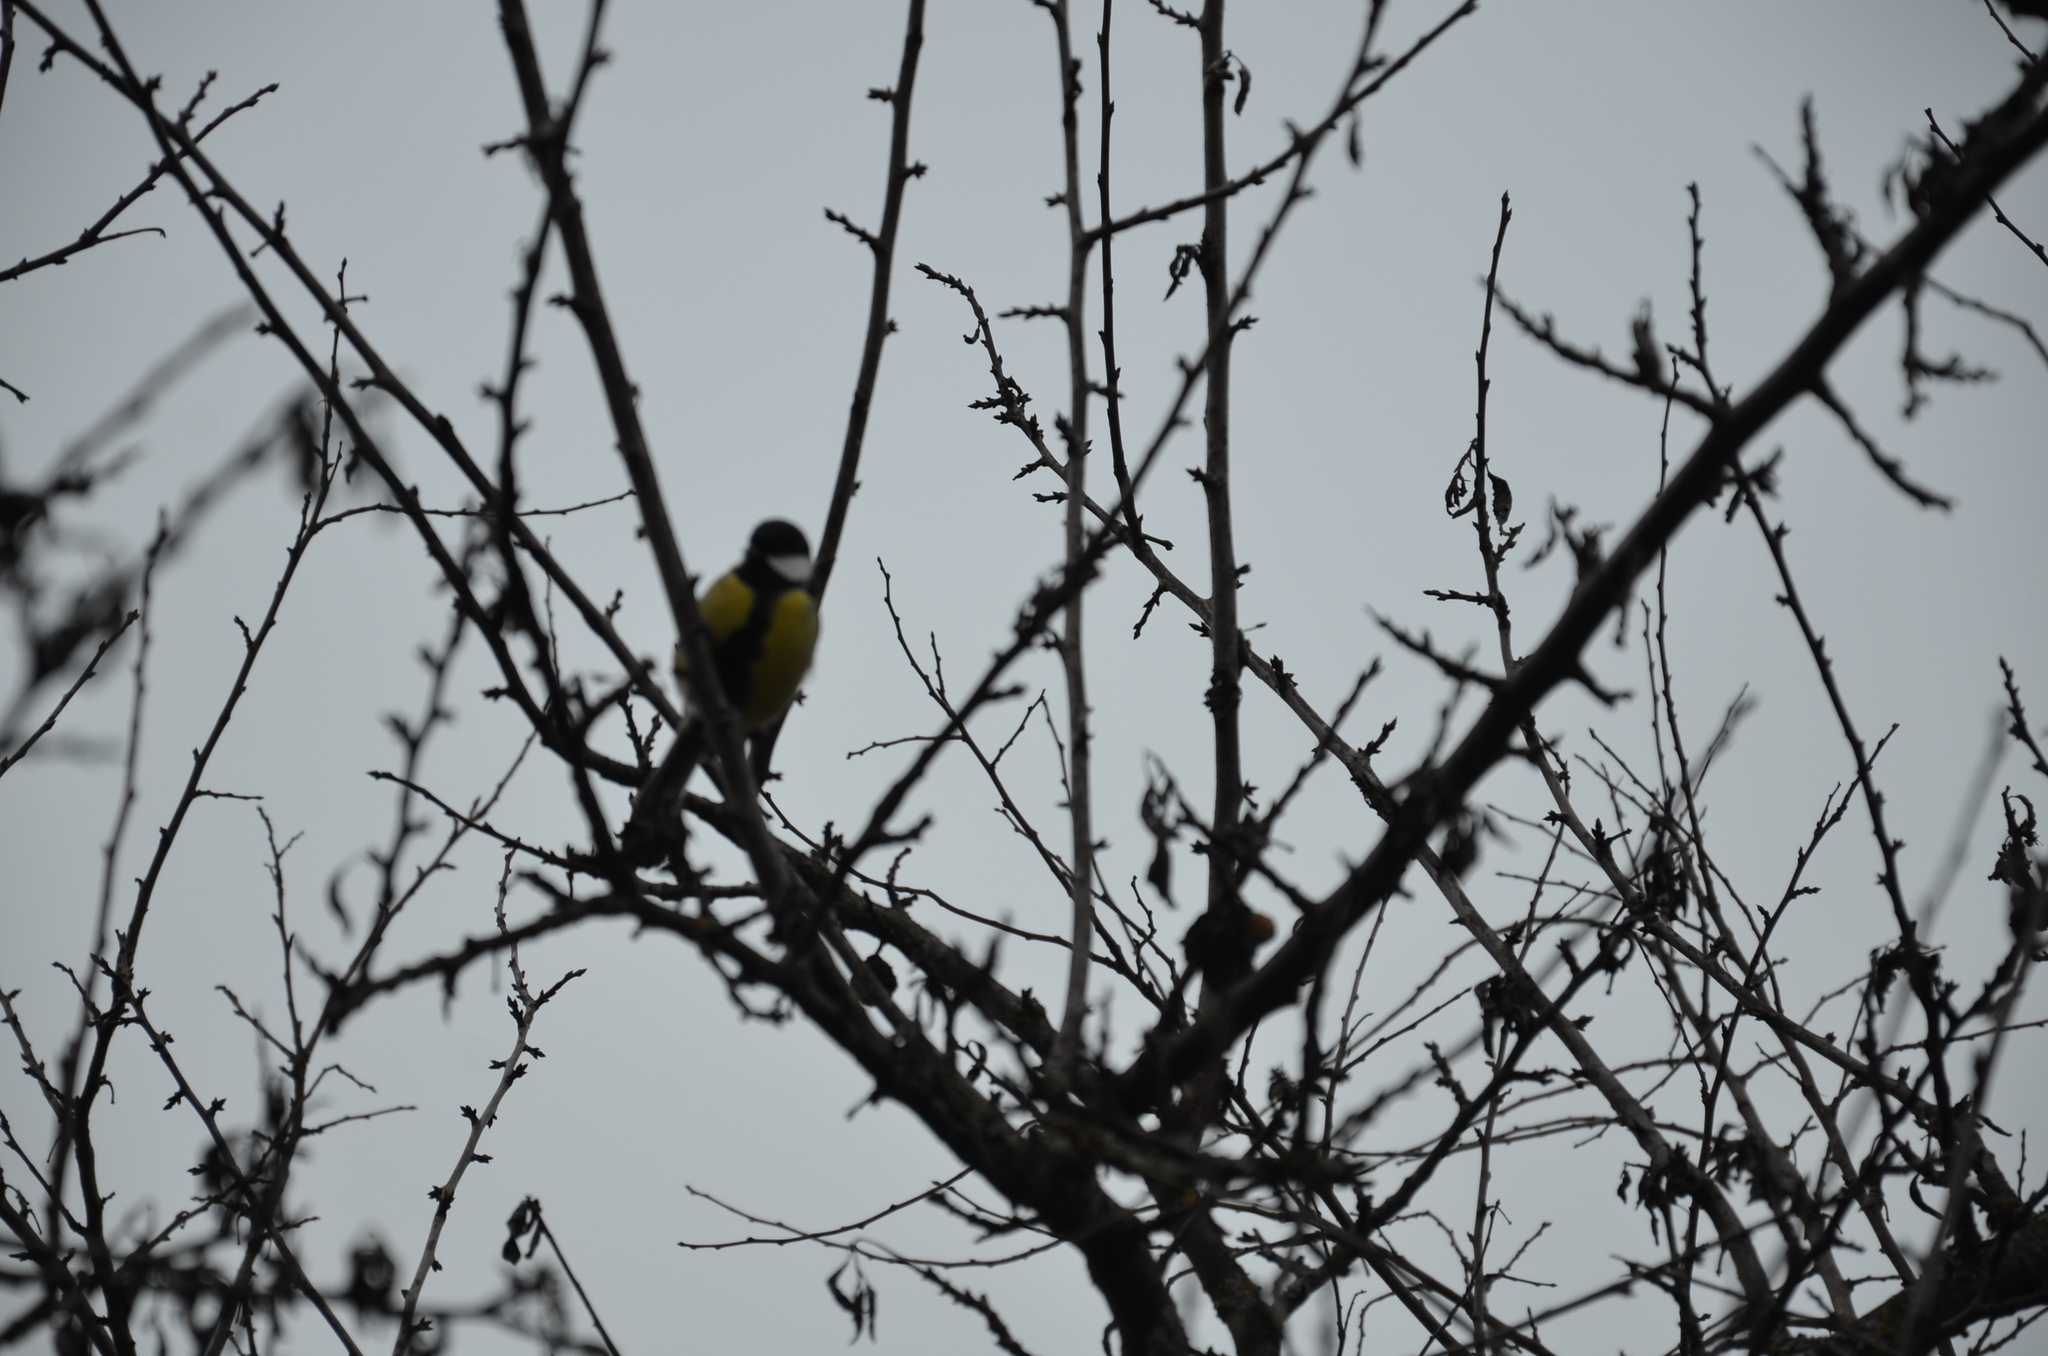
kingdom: Animalia
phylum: Chordata
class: Aves
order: Passeriformes
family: Paridae
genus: Parus
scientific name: Parus major
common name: Great tit
